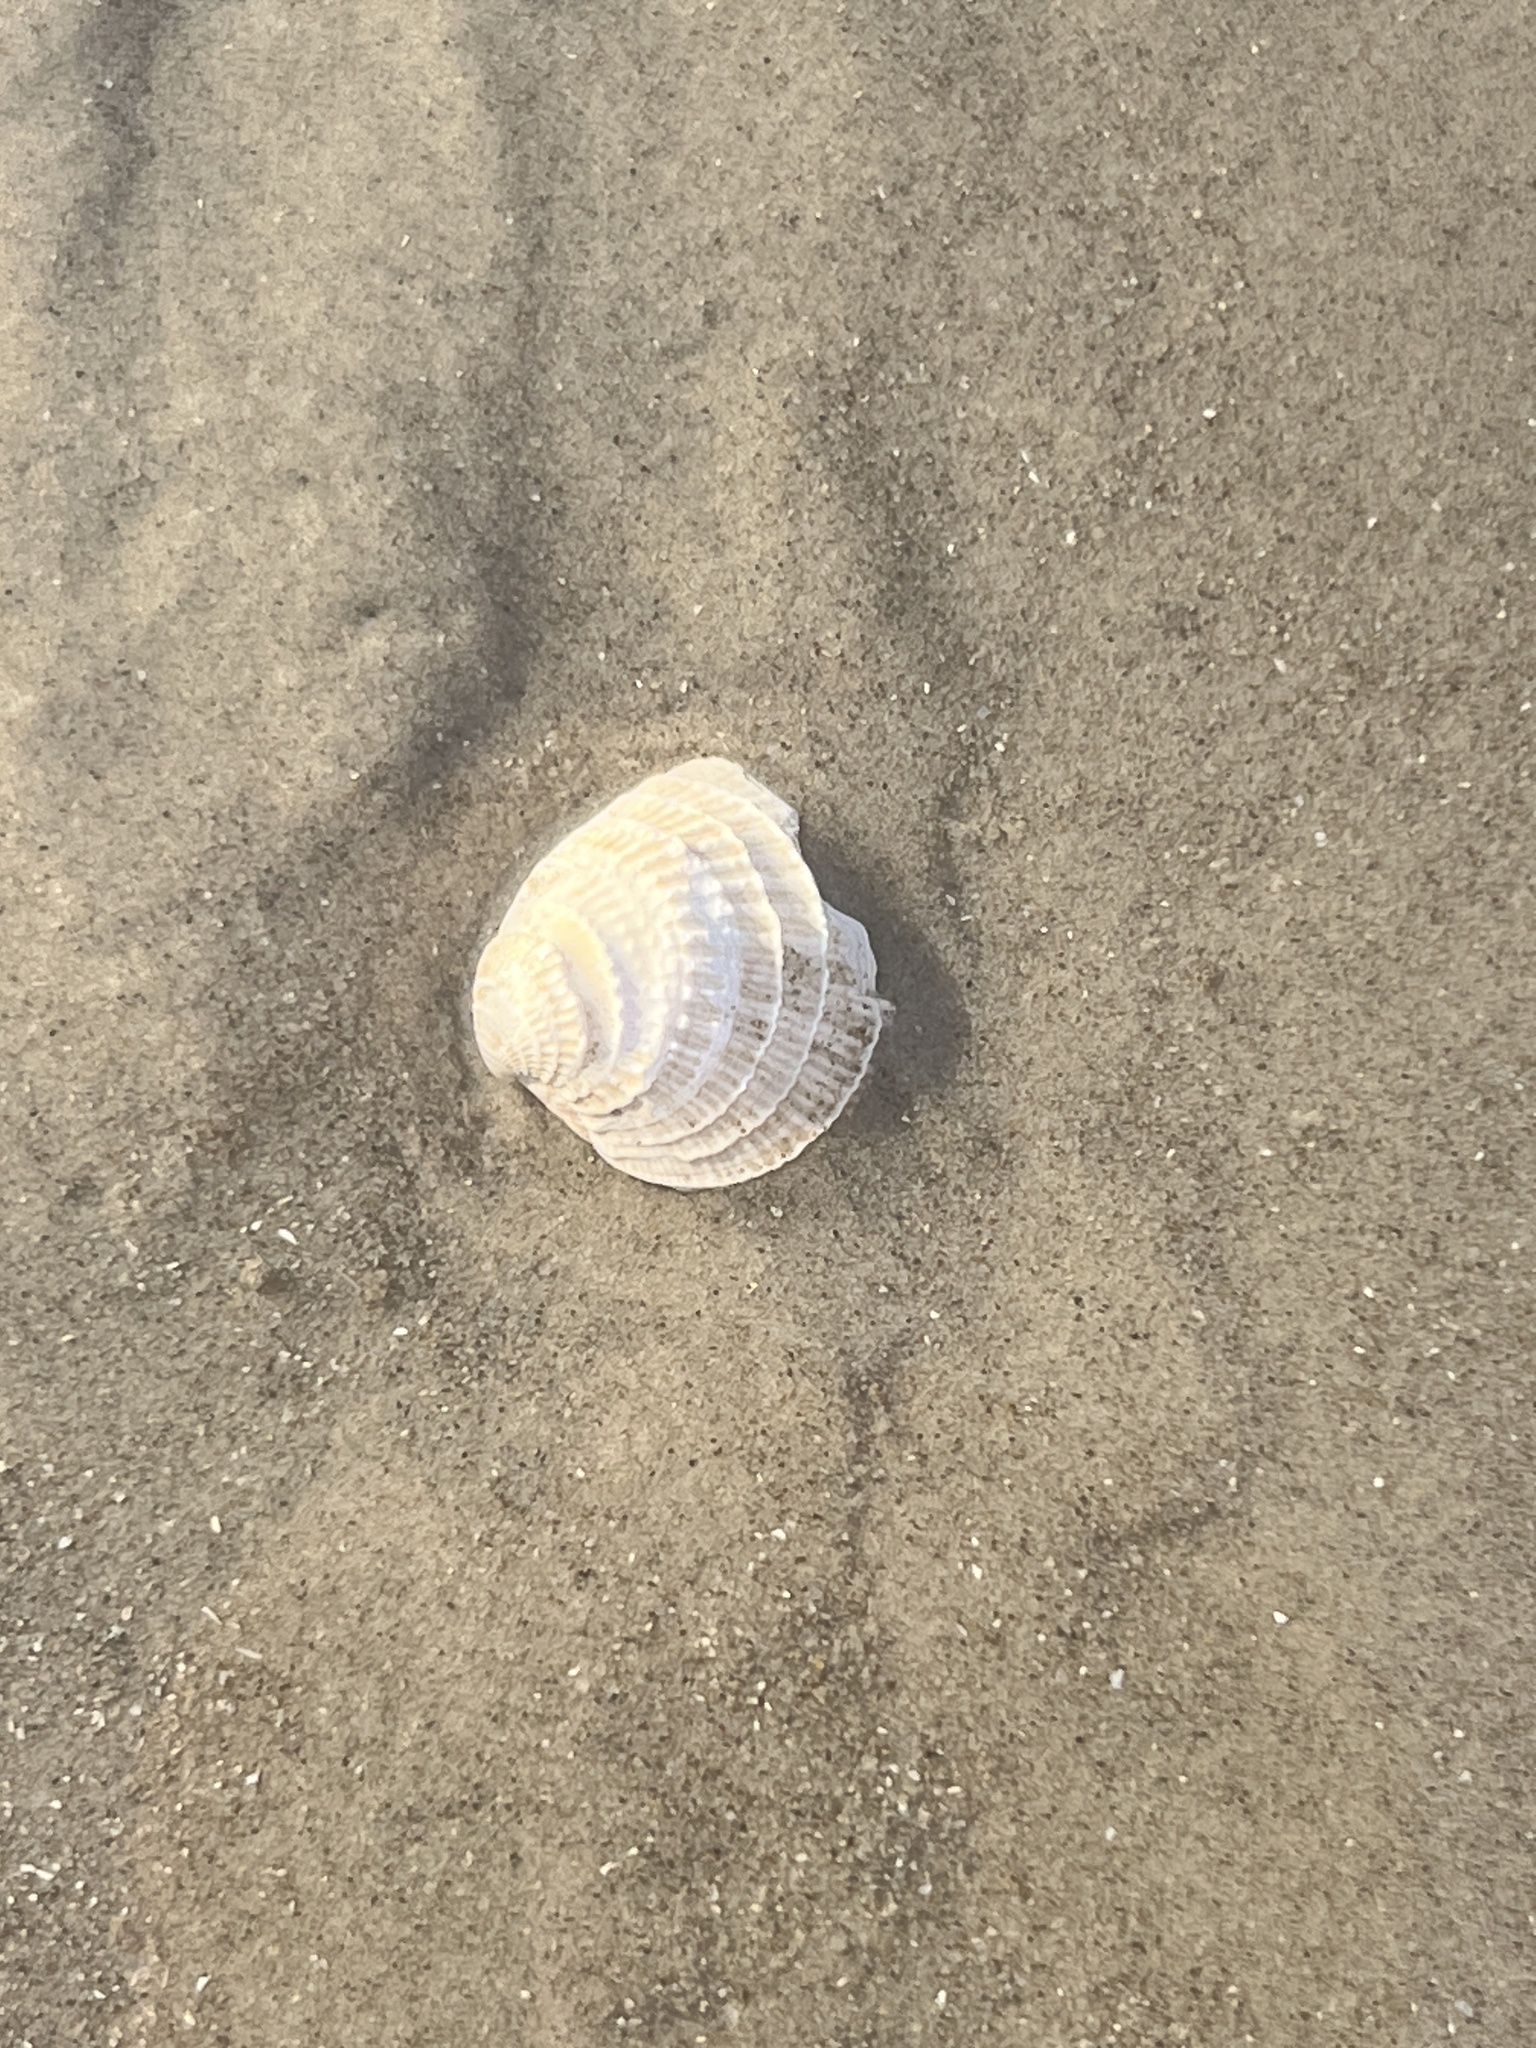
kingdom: Animalia
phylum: Mollusca
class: Bivalvia
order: Venerida
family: Veneridae
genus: Chione
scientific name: Chione elevata
